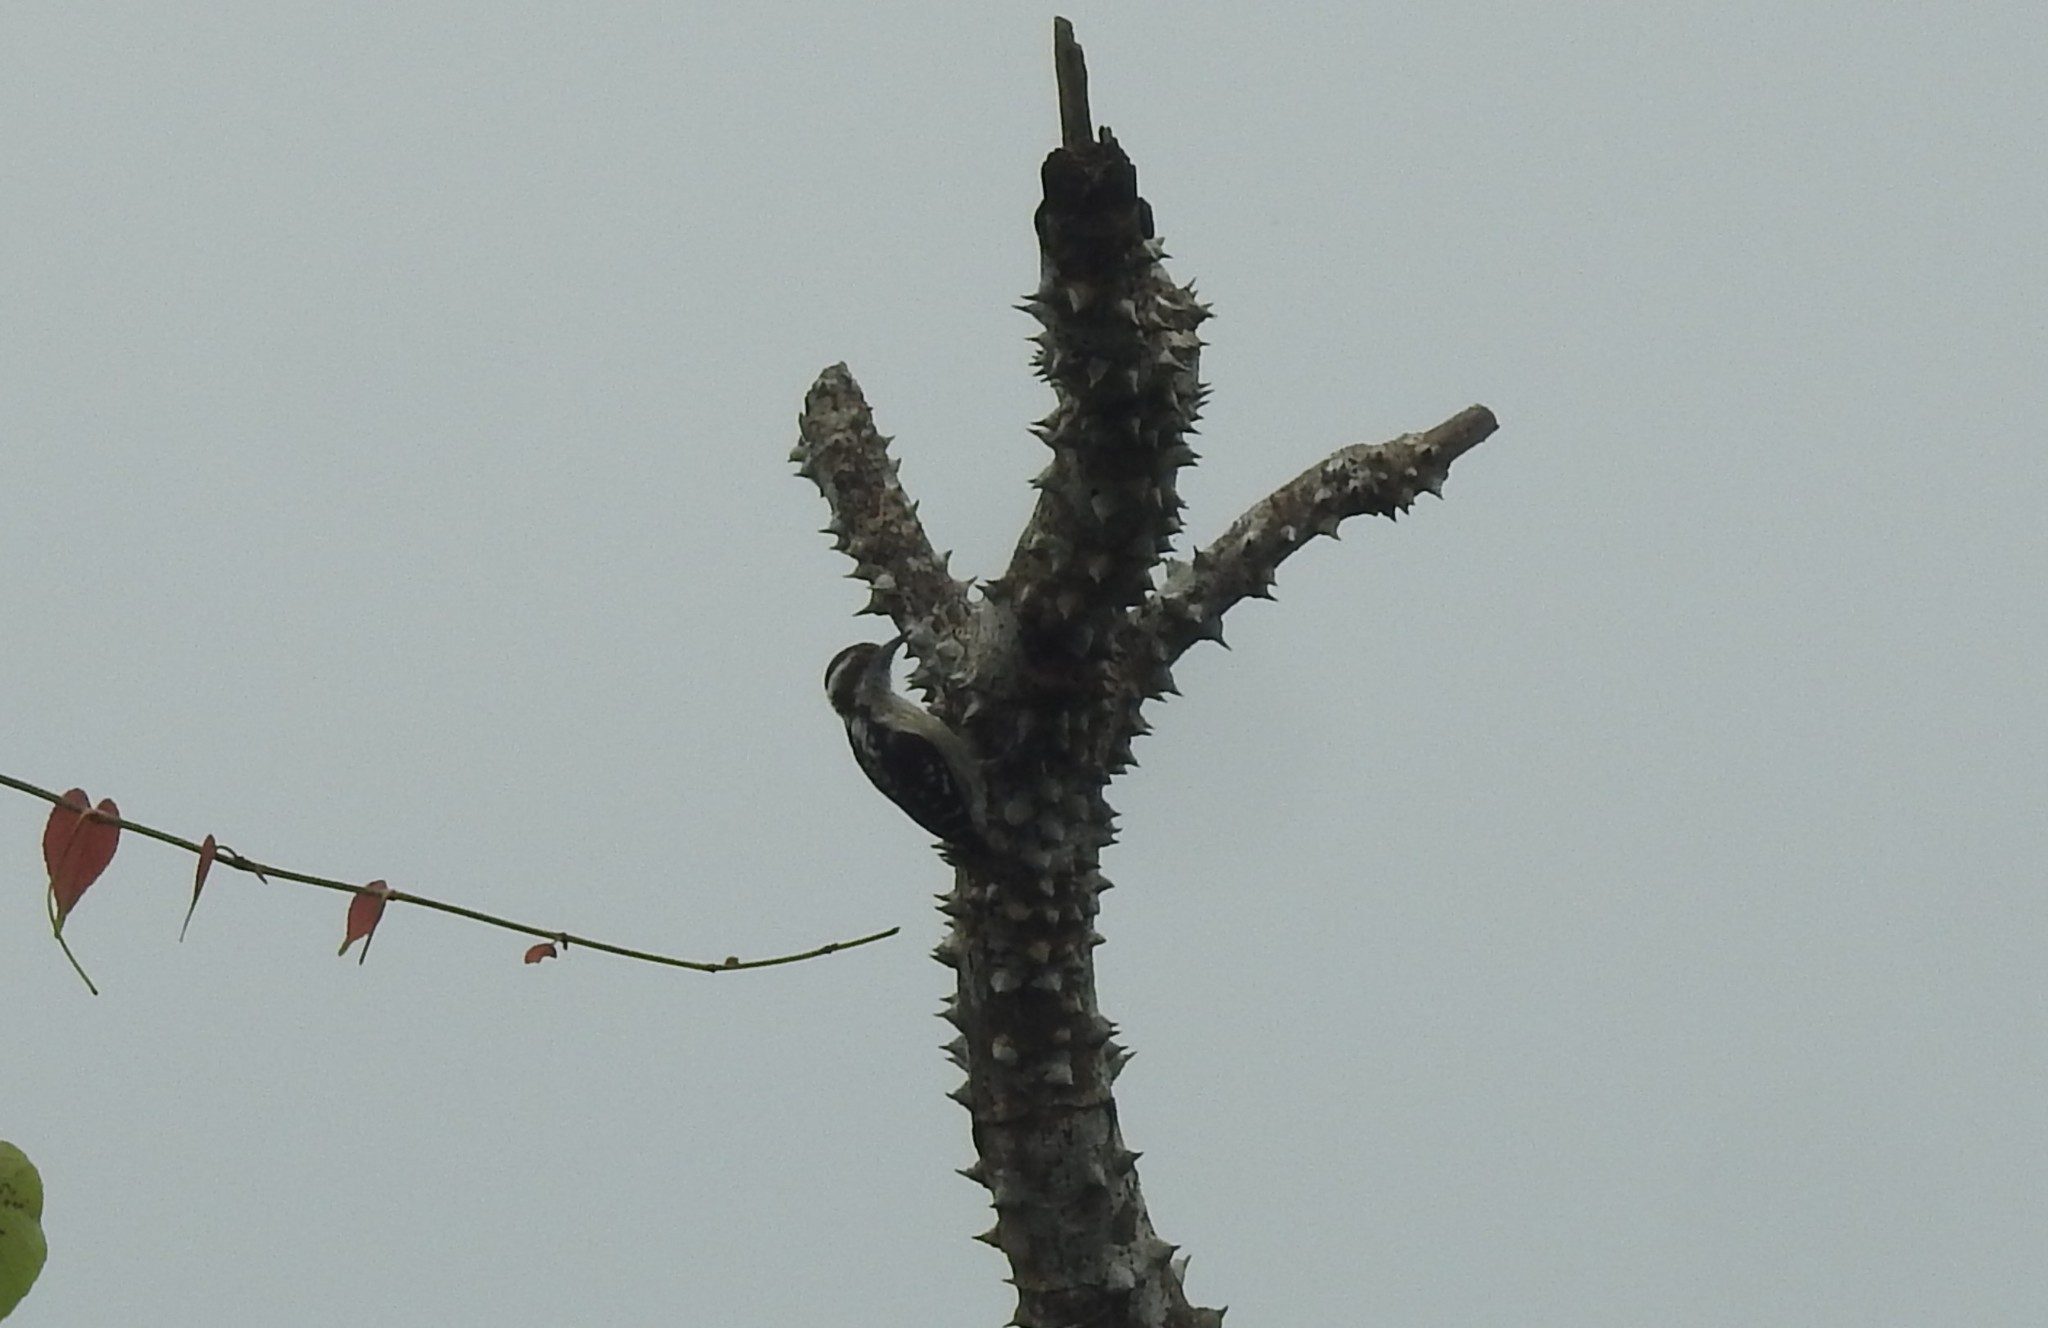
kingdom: Animalia
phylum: Chordata
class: Aves
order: Piciformes
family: Picidae
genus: Yungipicus
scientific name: Yungipicus nanus
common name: Brown-capped pygmy woodpecker
